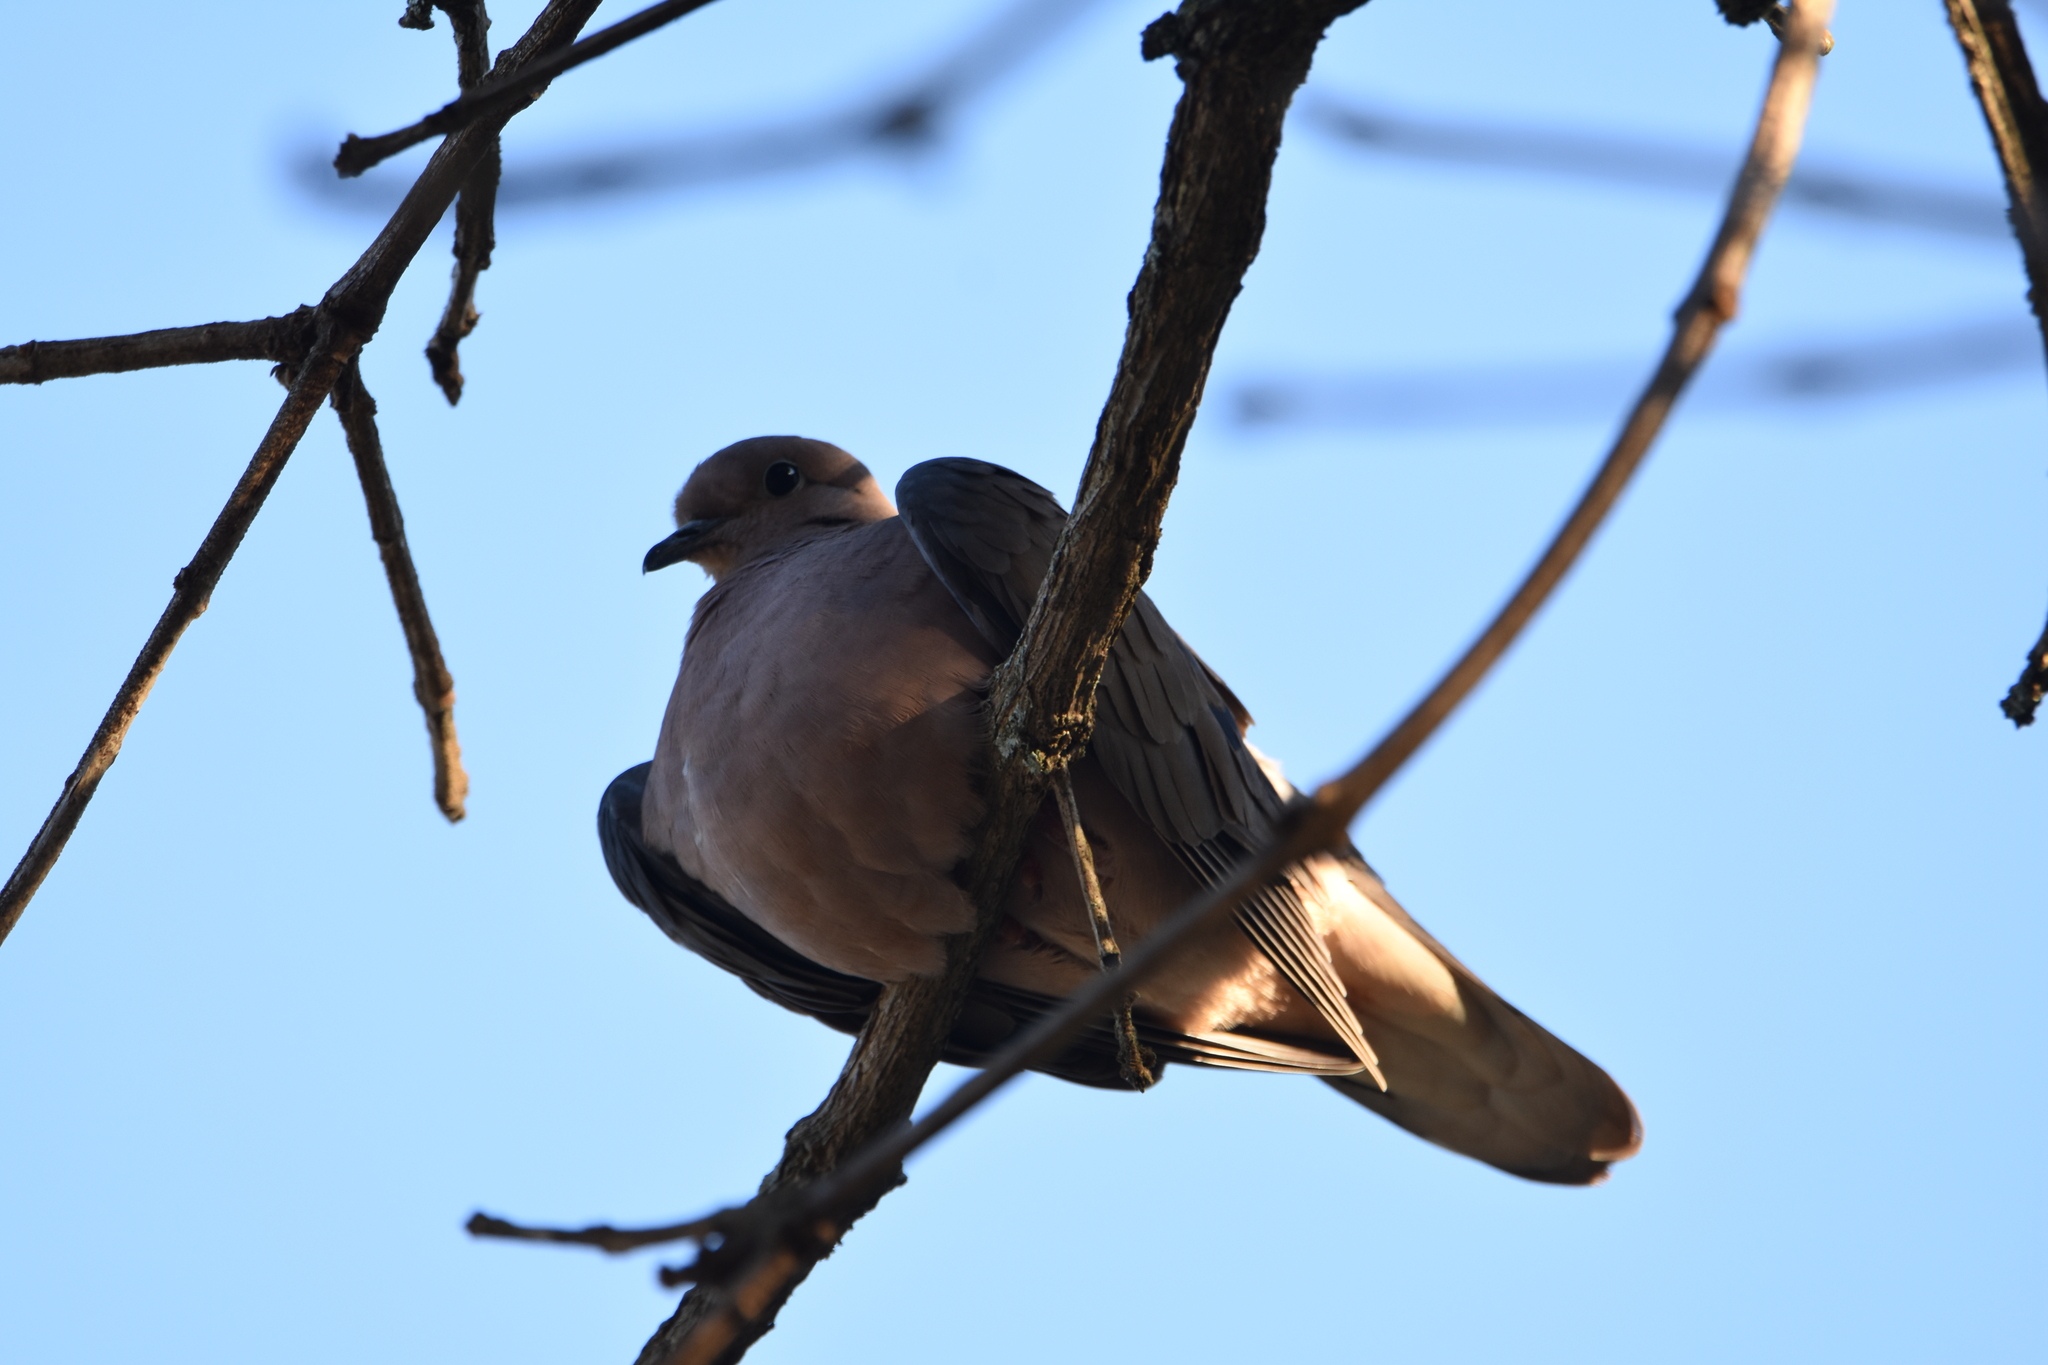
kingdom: Animalia
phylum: Chordata
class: Aves
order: Columbiformes
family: Columbidae
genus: Zenaida
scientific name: Zenaida auriculata
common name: Eared dove
